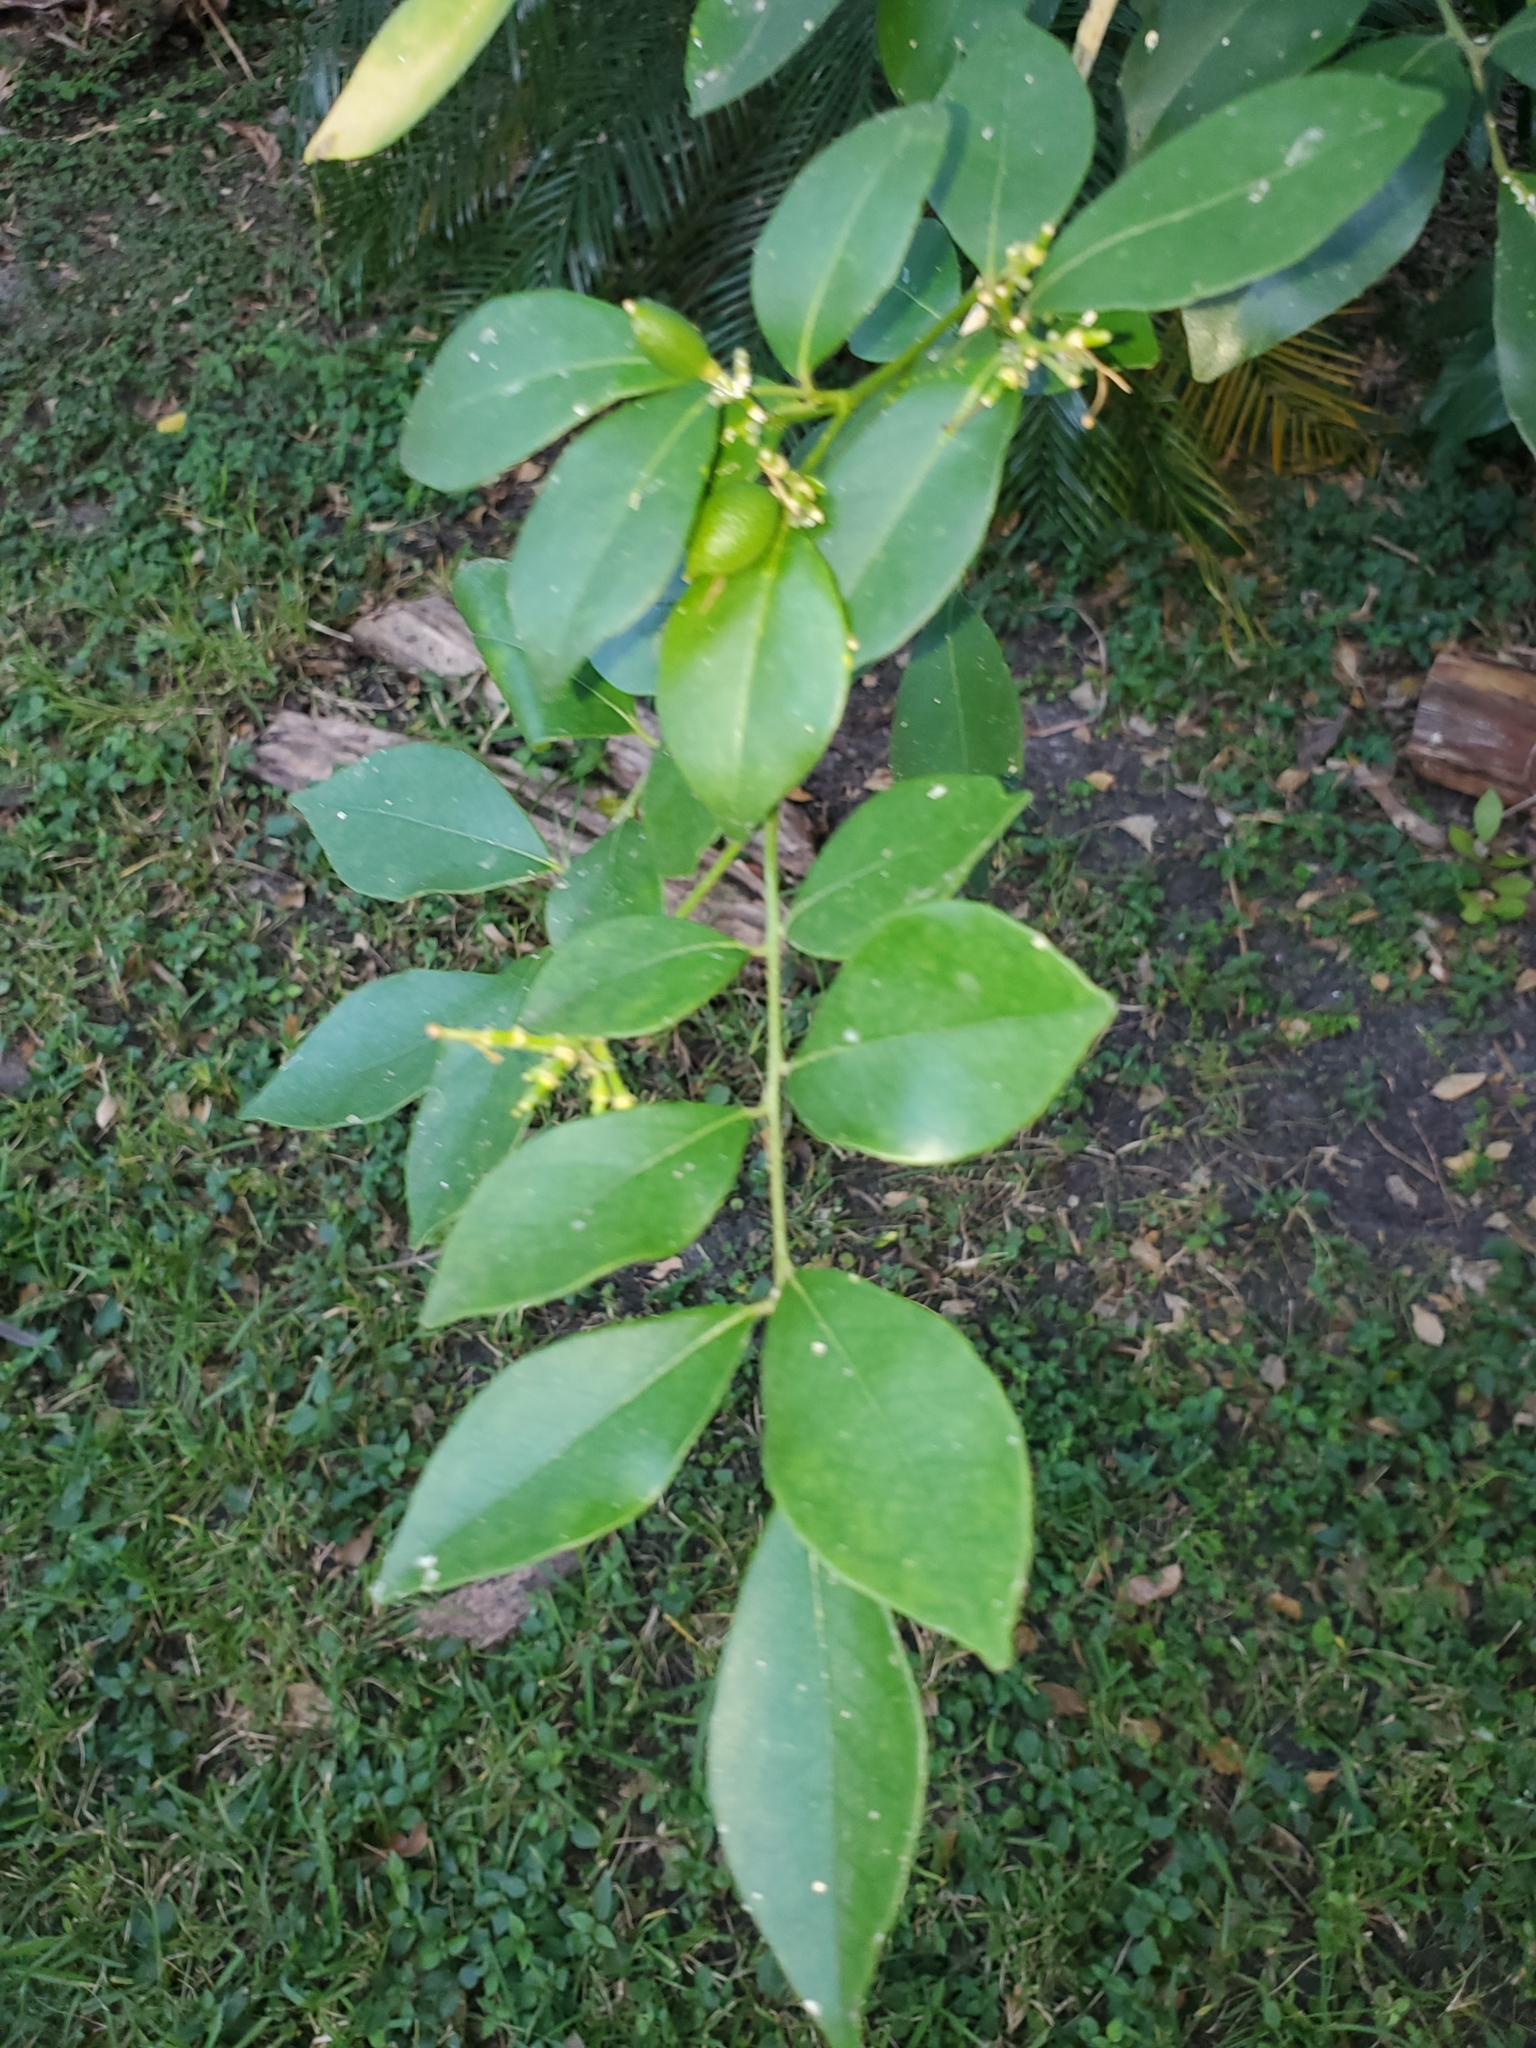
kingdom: Plantae
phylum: Tracheophyta
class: Magnoliopsida
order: Sapindales
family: Rutaceae
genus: Murraya
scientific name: Murraya paniculata
